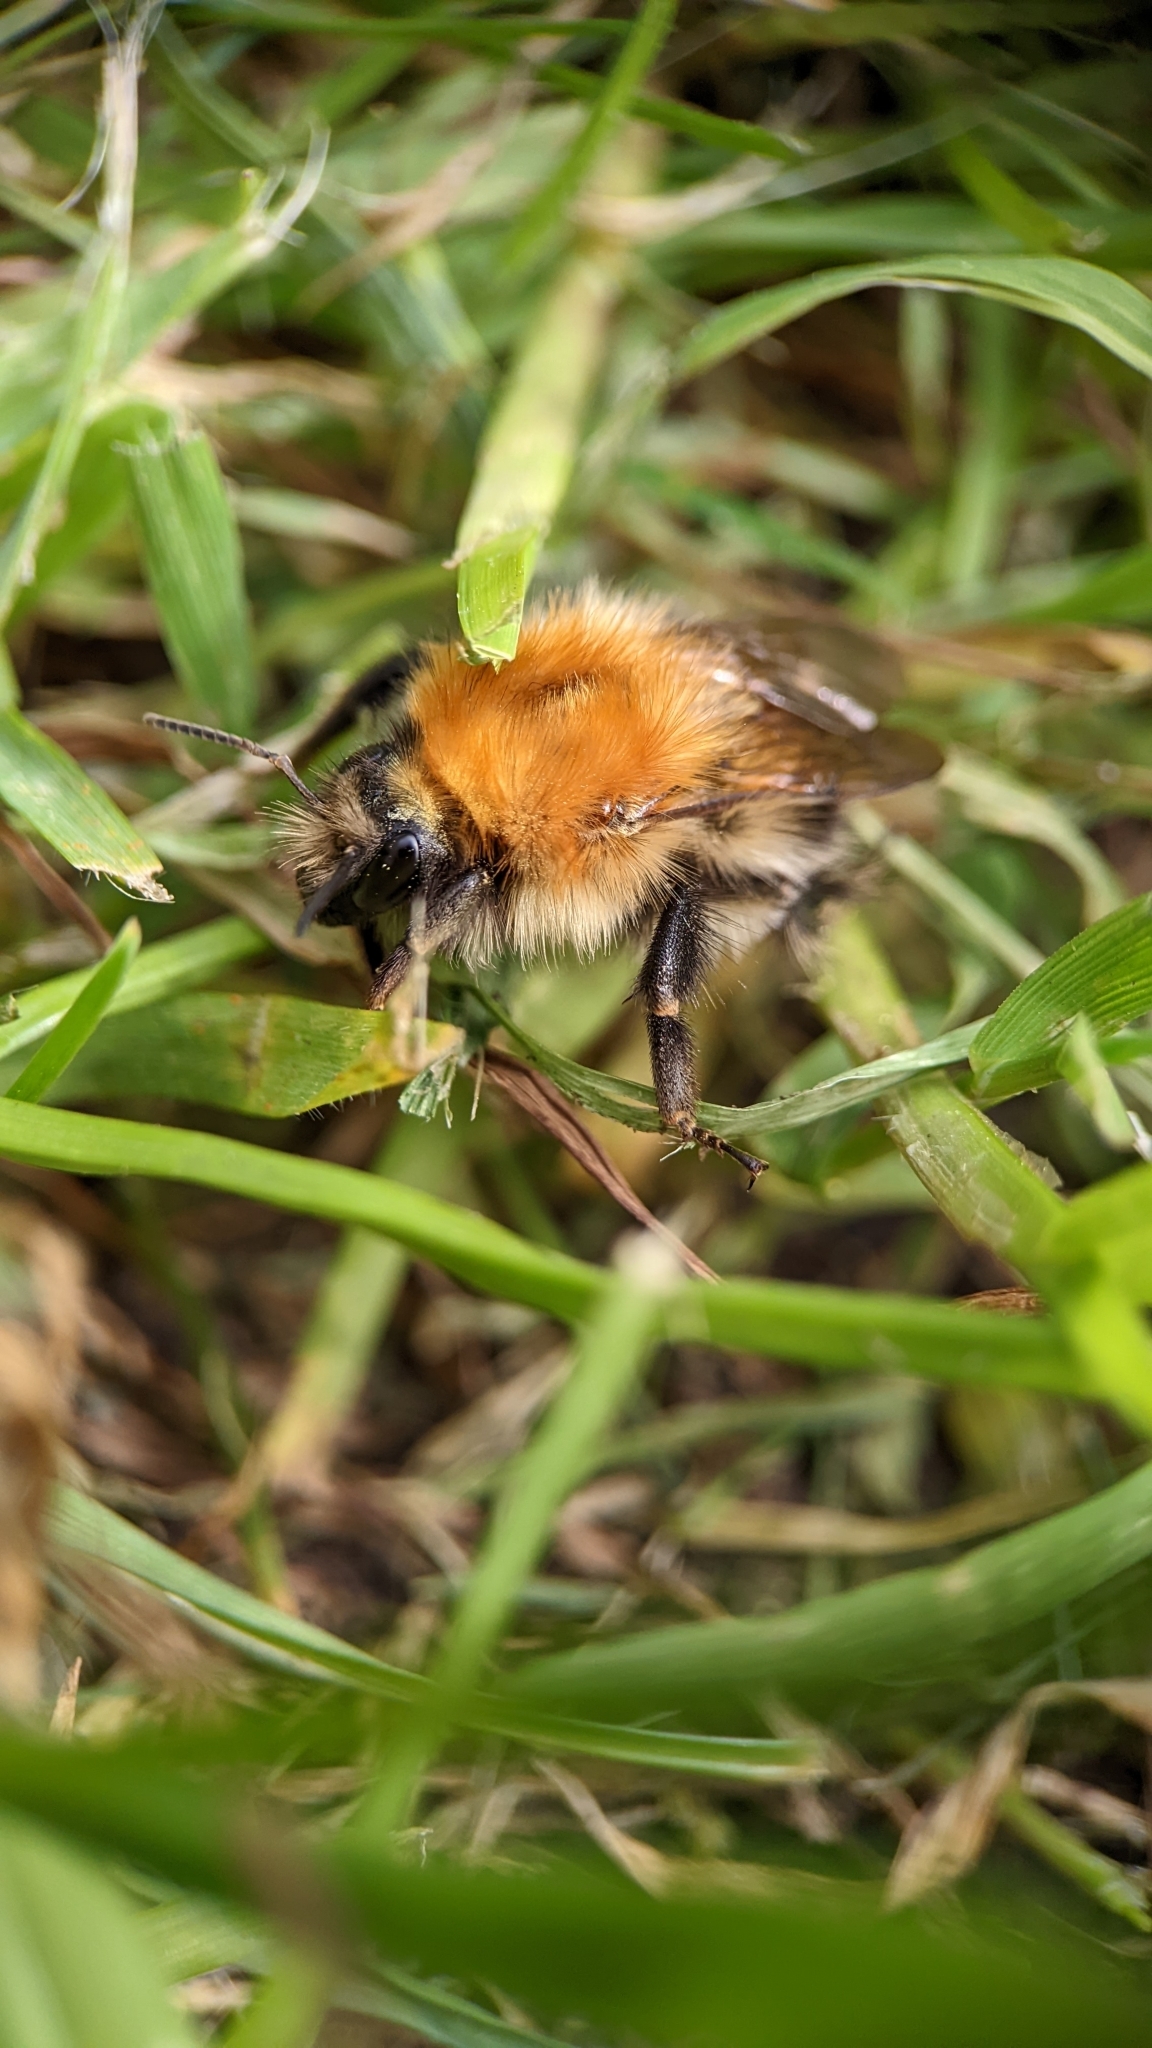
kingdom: Animalia
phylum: Arthropoda
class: Insecta
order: Hymenoptera
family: Apidae
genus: Bombus
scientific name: Bombus pascuorum
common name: Common carder bee
